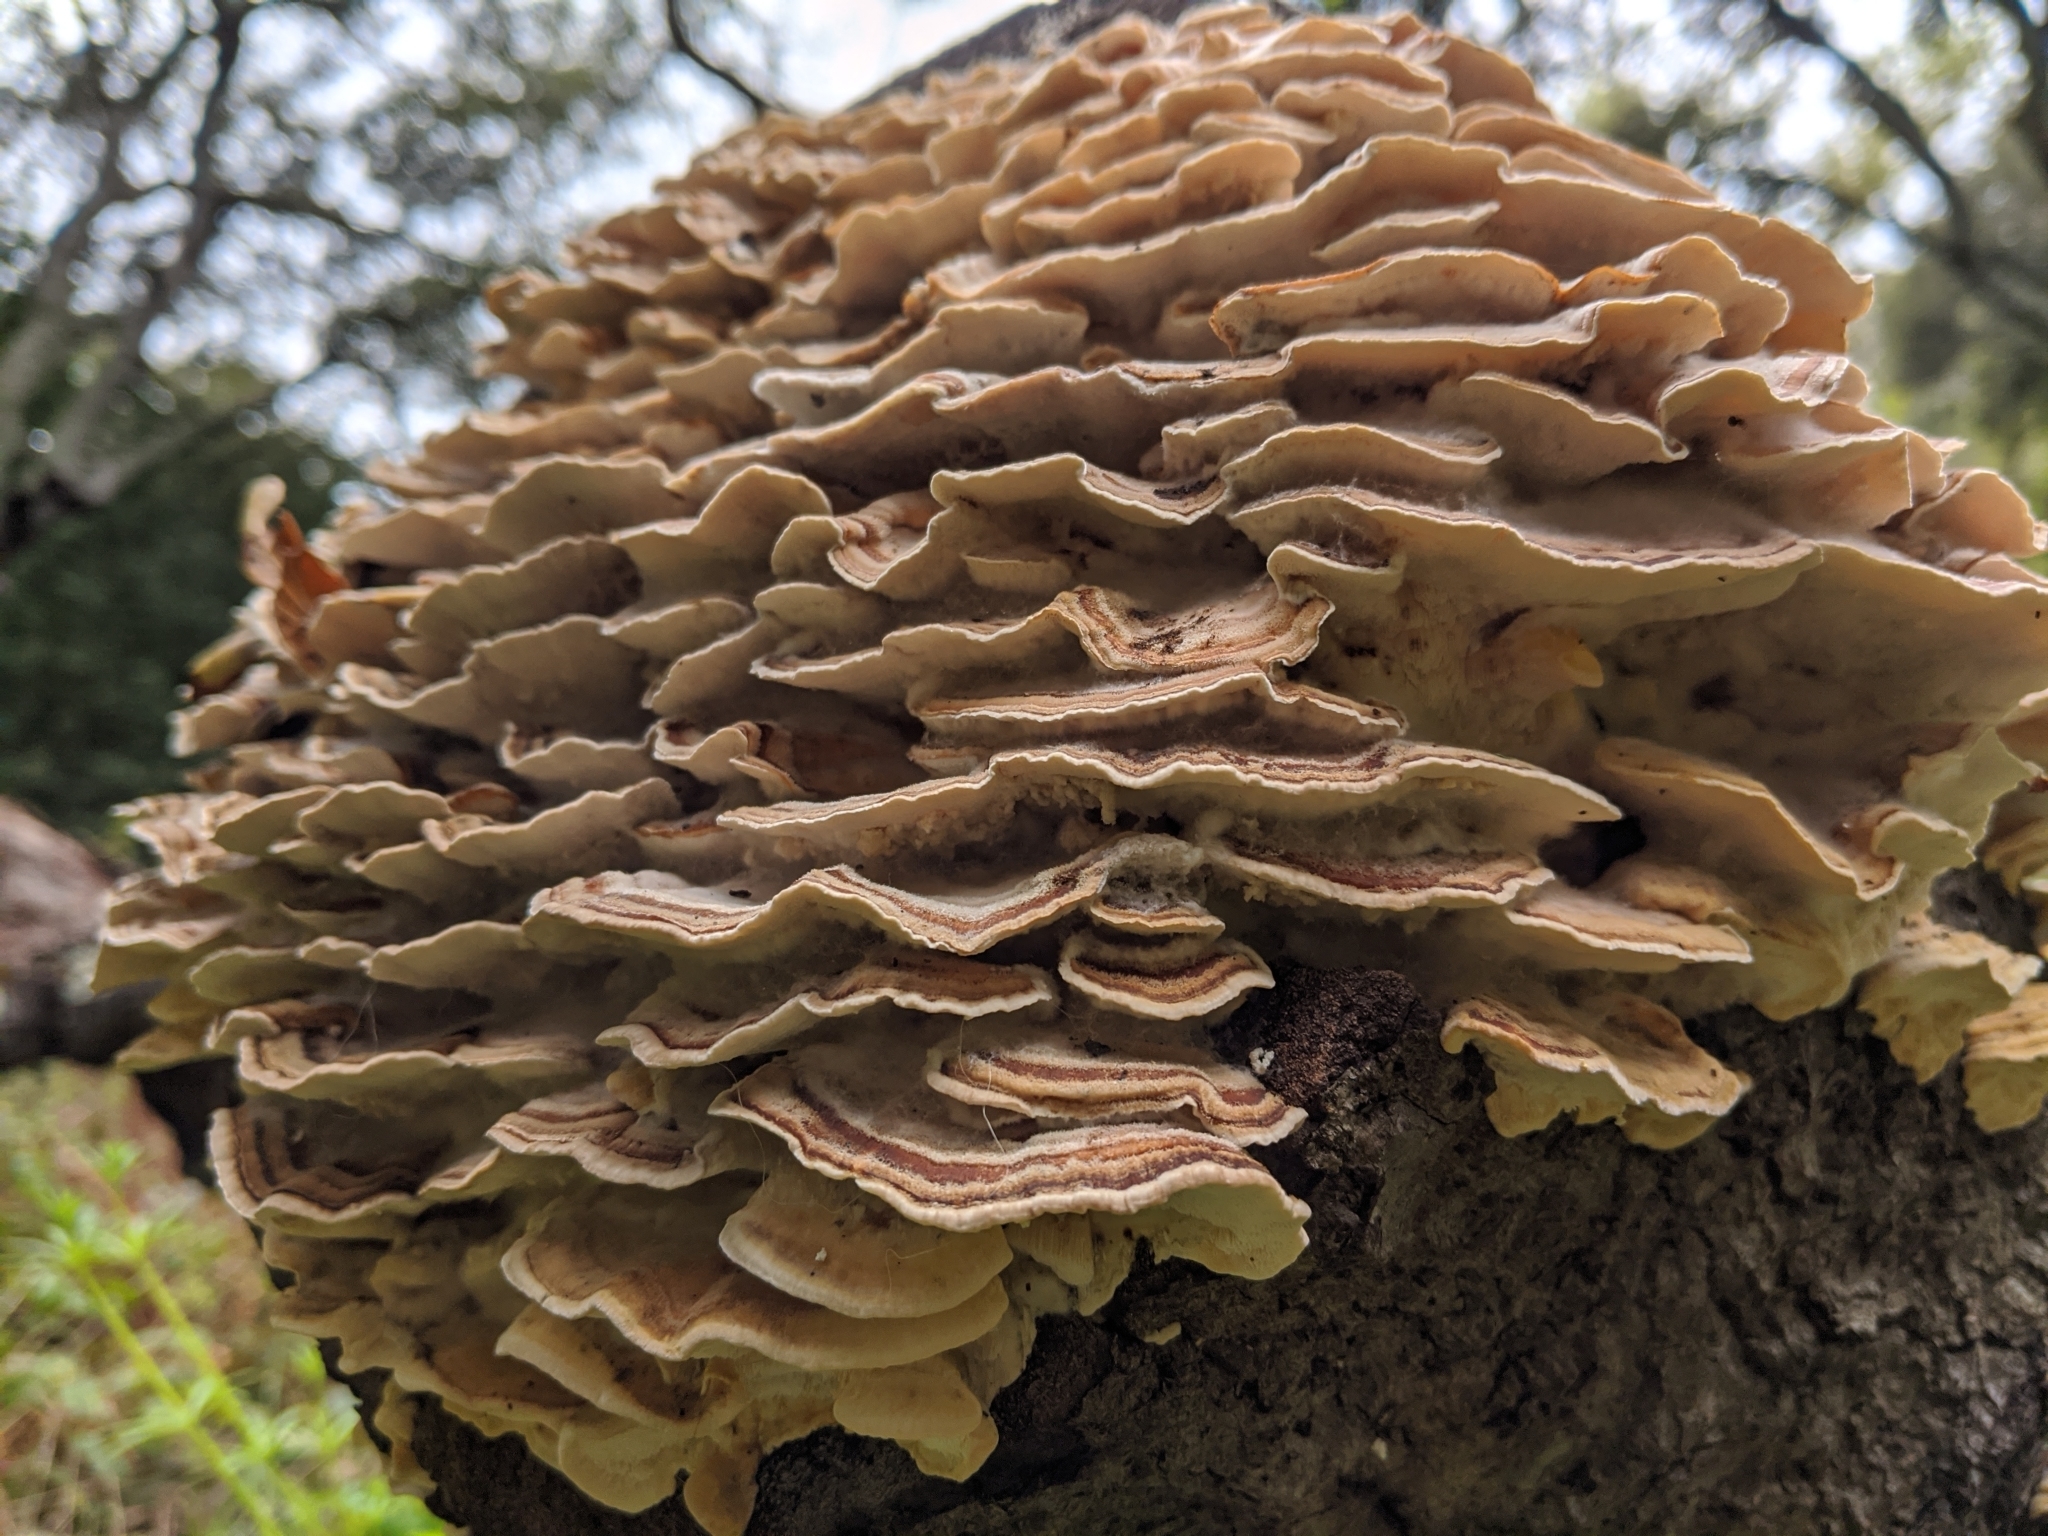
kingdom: Fungi
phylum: Basidiomycota
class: Agaricomycetes
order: Polyporales
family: Polyporaceae
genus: Trametes
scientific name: Trametes versicolor
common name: Turkeytail
